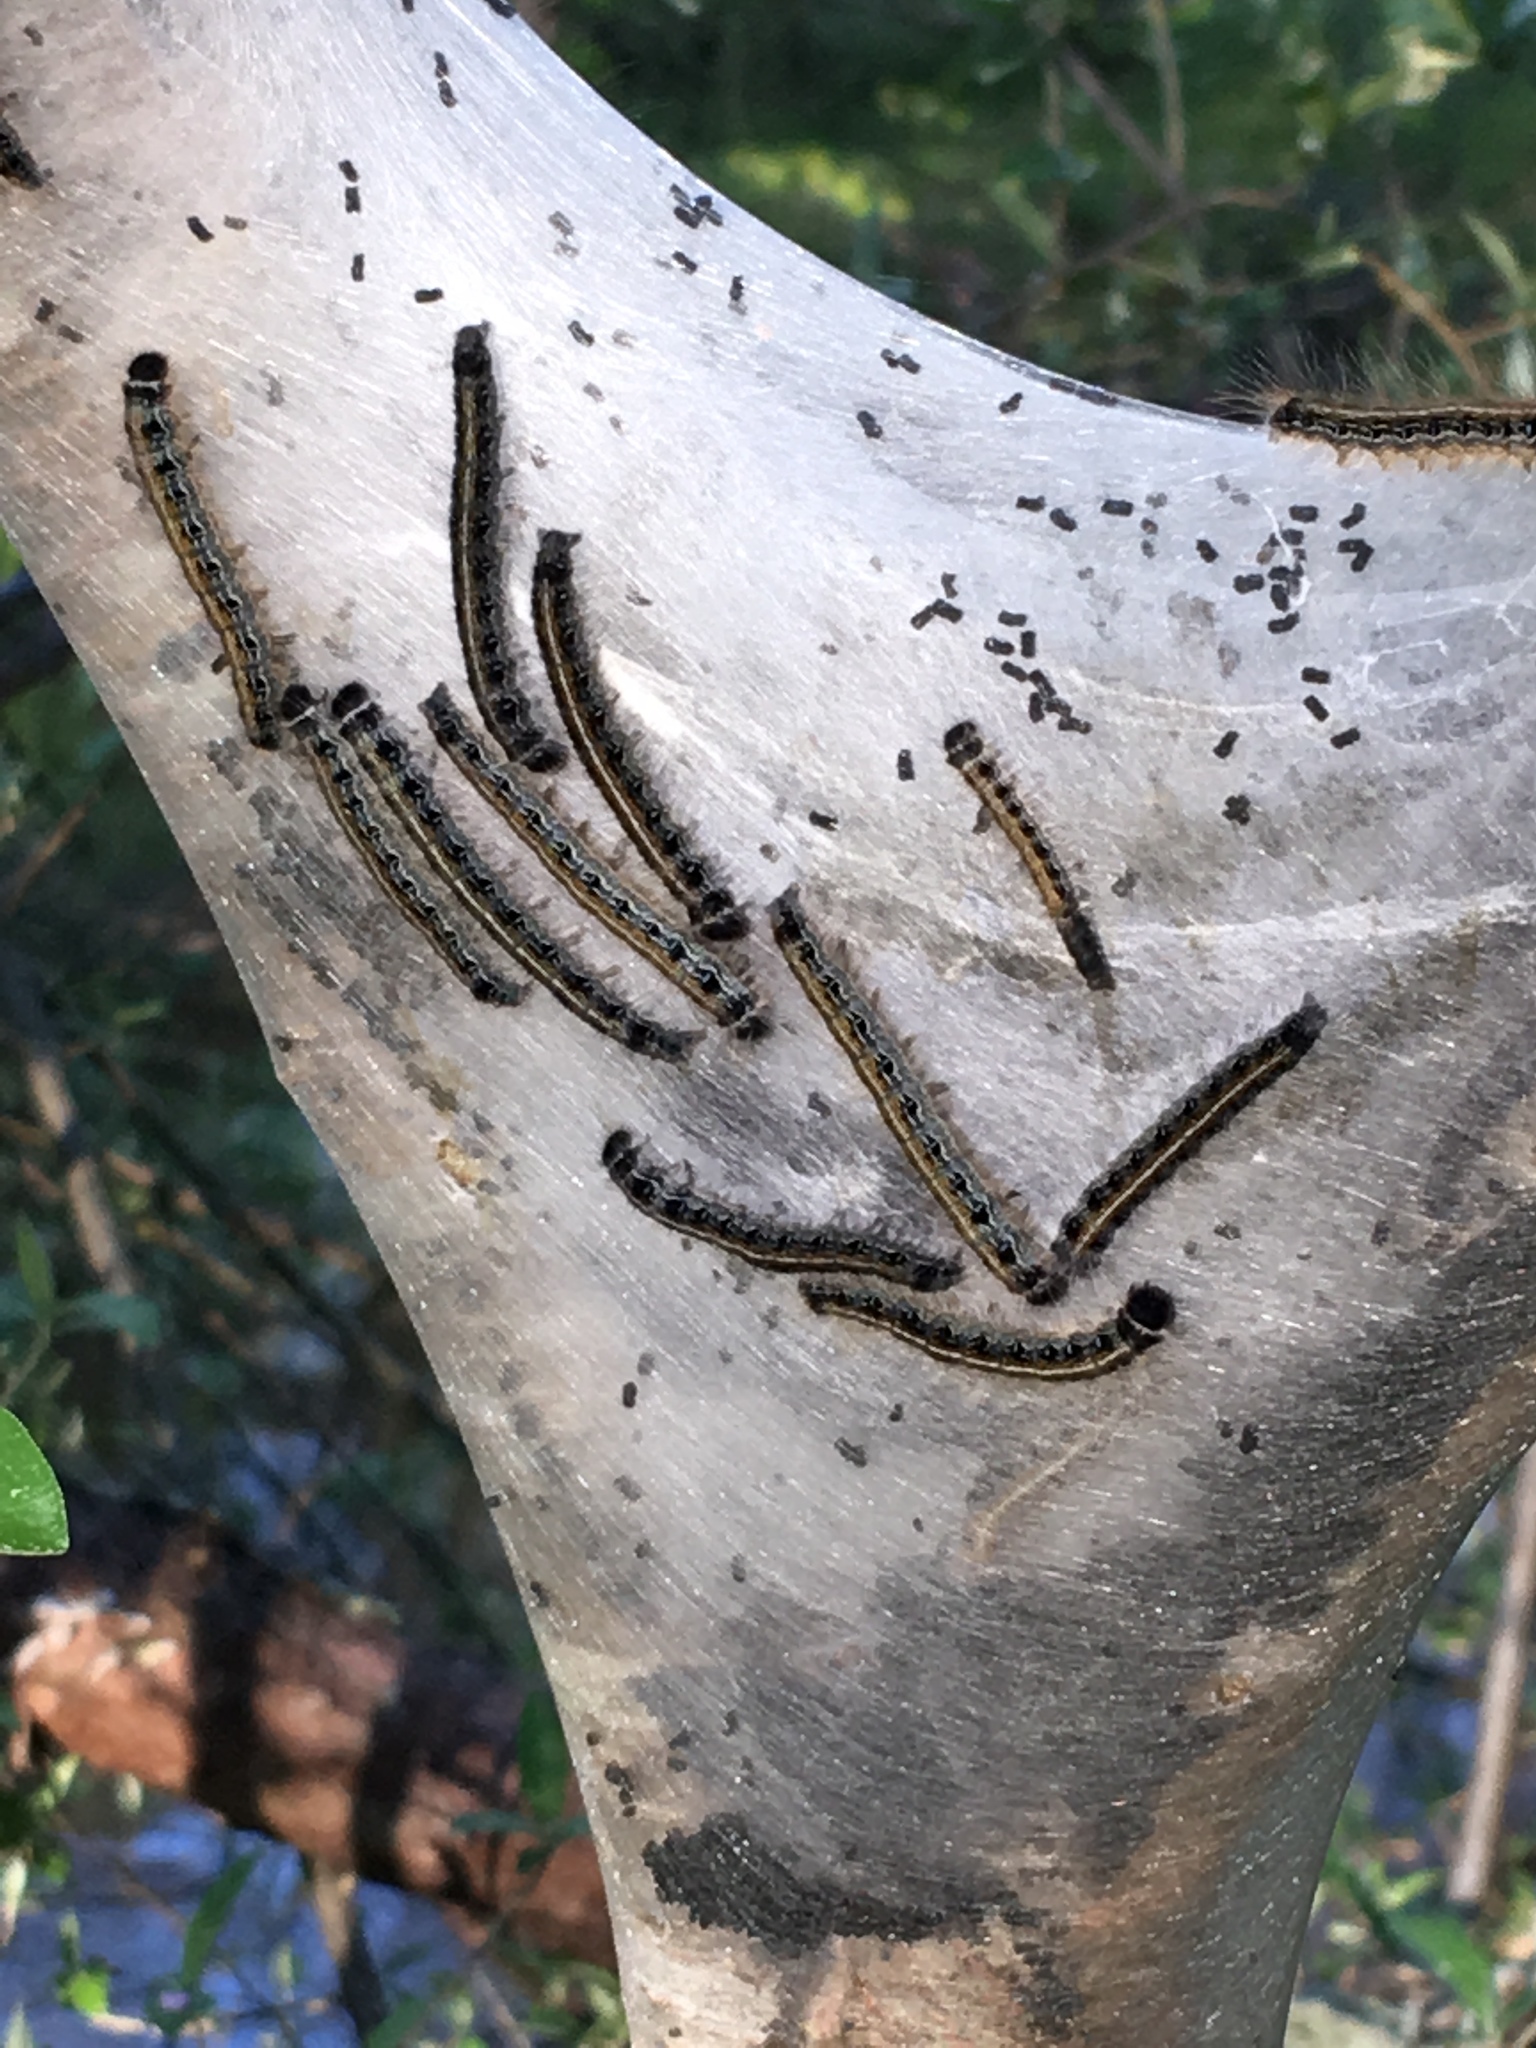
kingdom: Animalia
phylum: Arthropoda
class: Insecta
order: Lepidoptera
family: Lasiocampidae
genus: Malacosoma
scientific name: Malacosoma americana
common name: Eastern tent caterpillar moth
